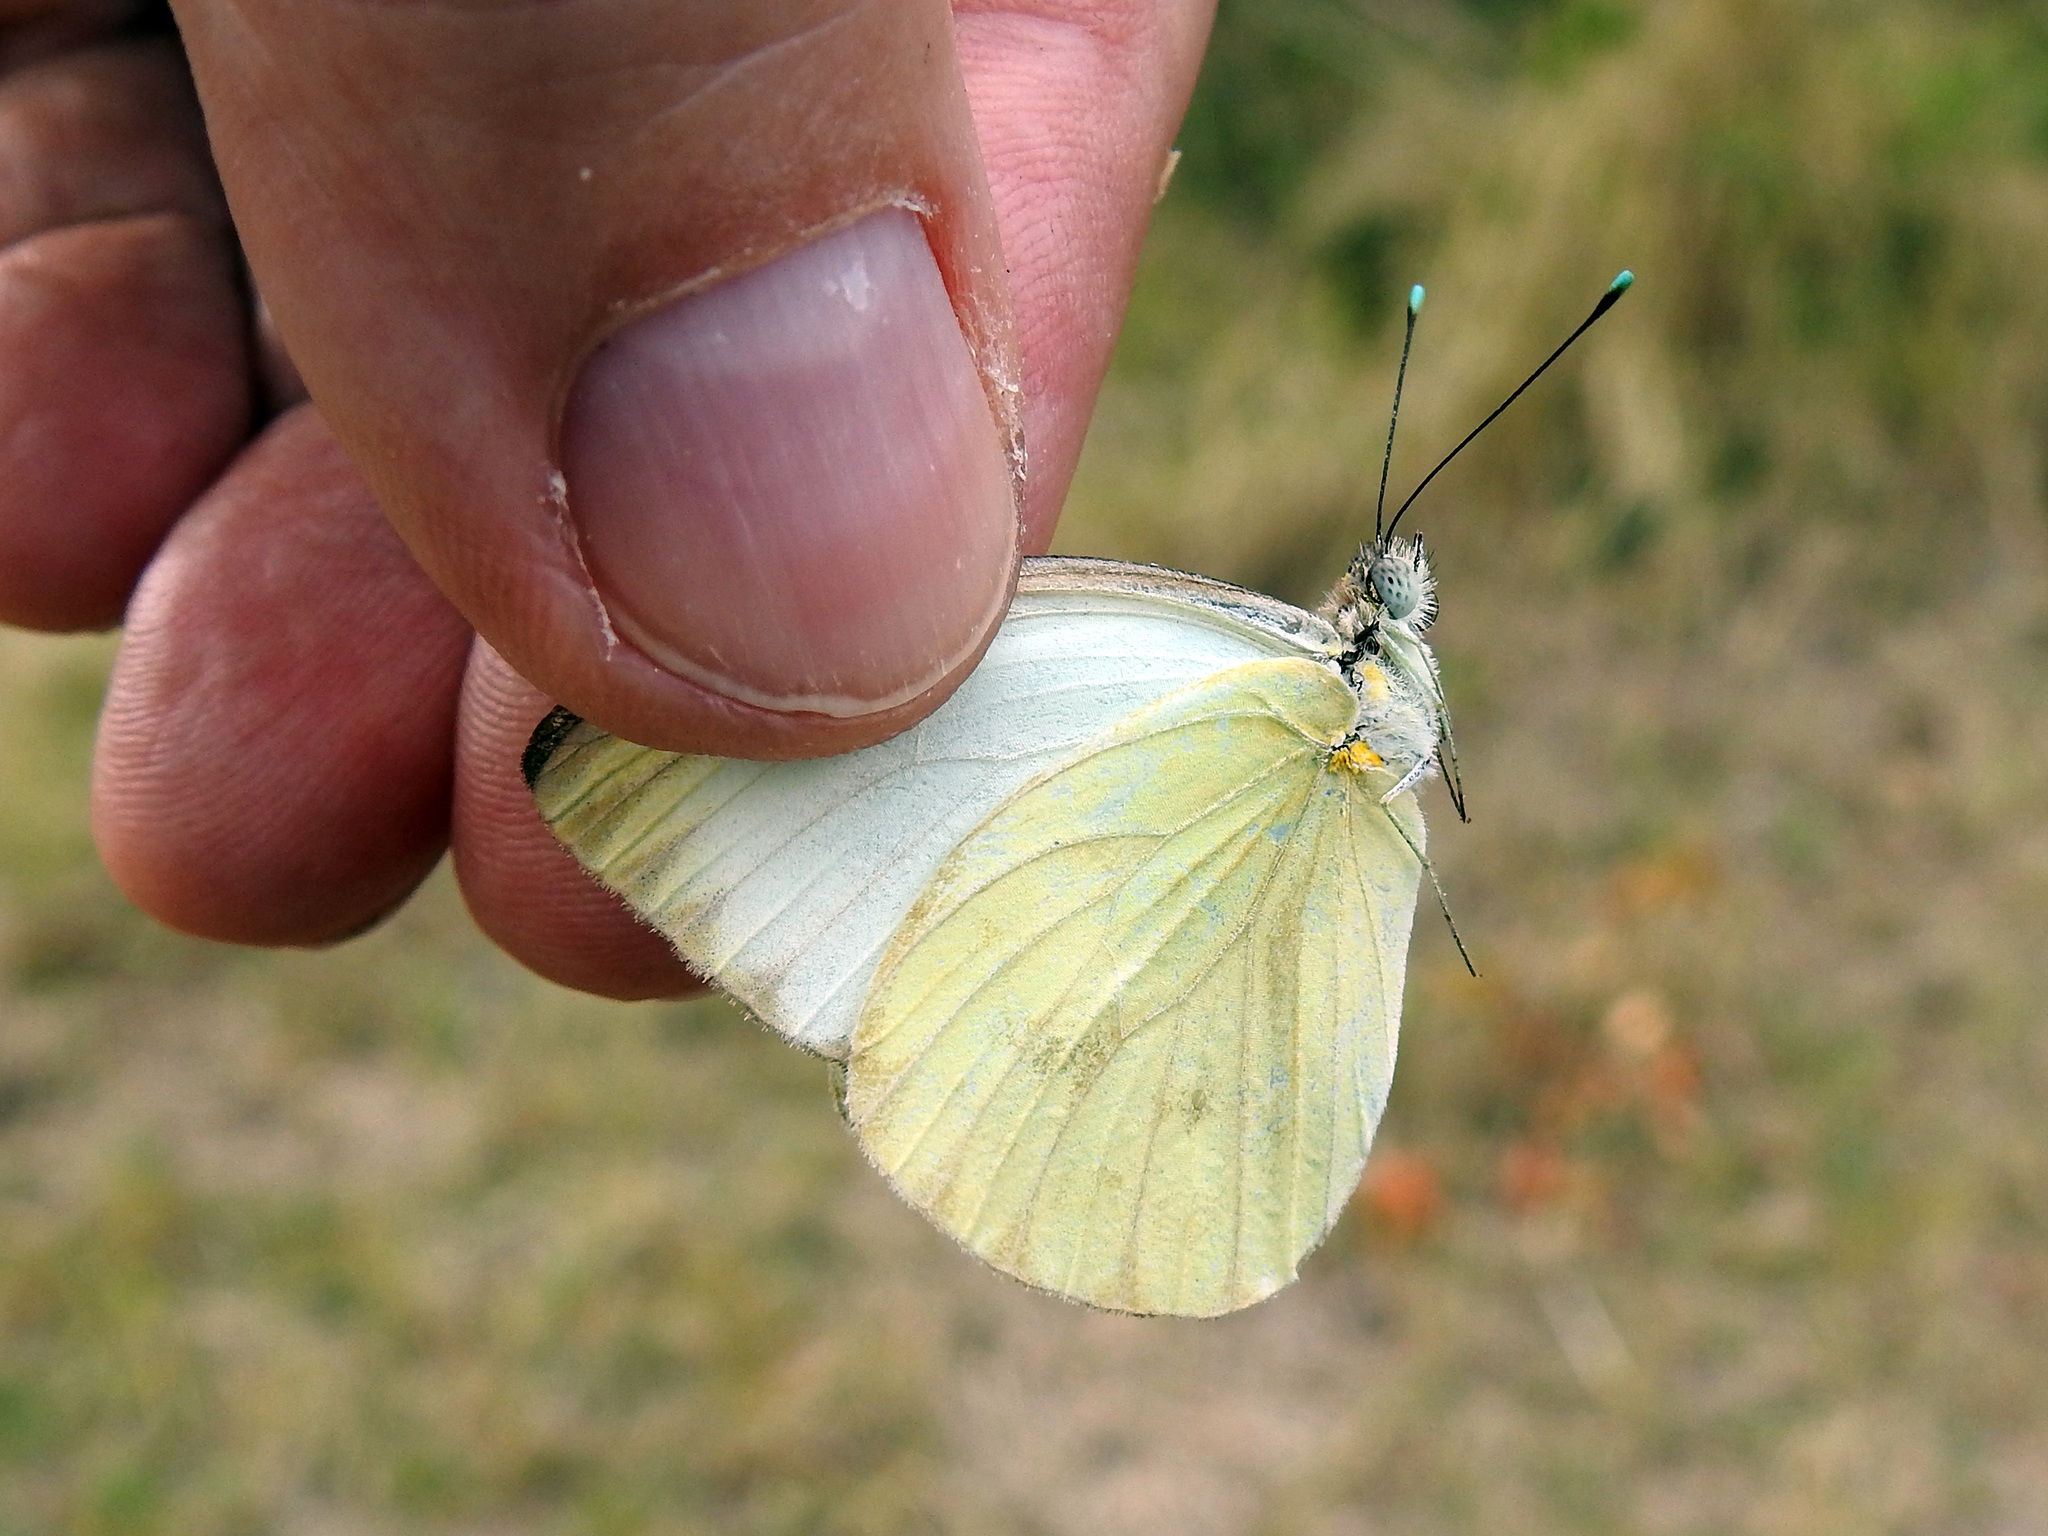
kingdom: Animalia
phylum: Arthropoda
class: Insecta
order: Lepidoptera
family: Pieridae
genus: Ascia
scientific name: Ascia monuste
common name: Great southern white
